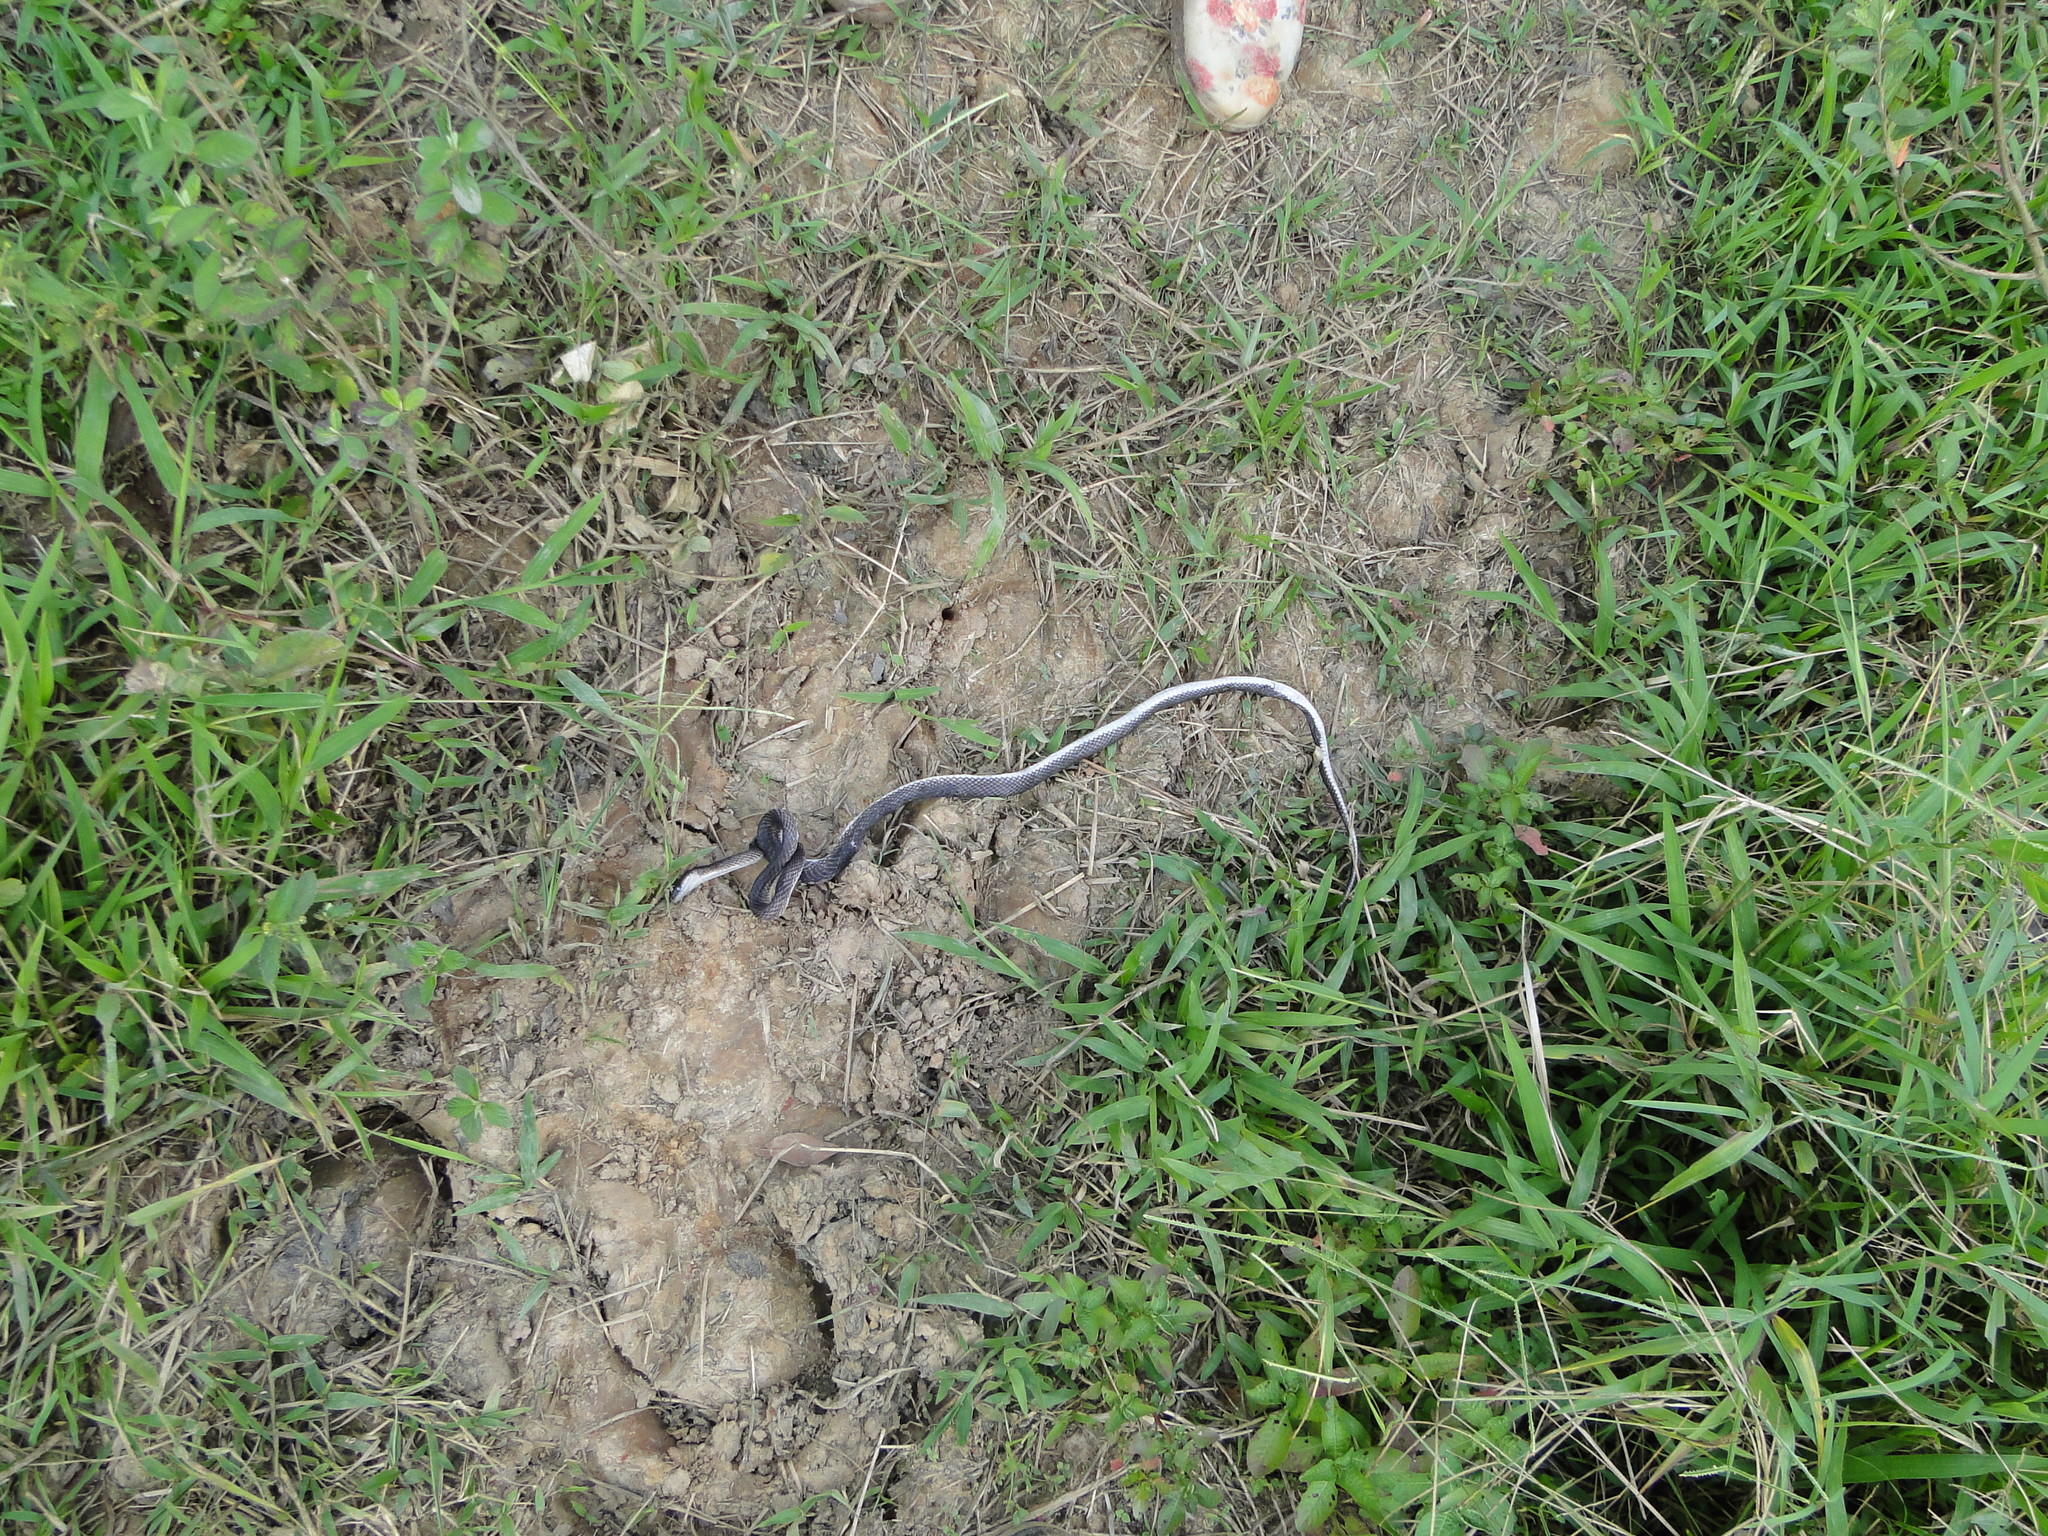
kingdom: Animalia
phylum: Chordata
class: Squamata
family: Colubridae
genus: Clelia
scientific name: Clelia clelia
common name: Mussurana
